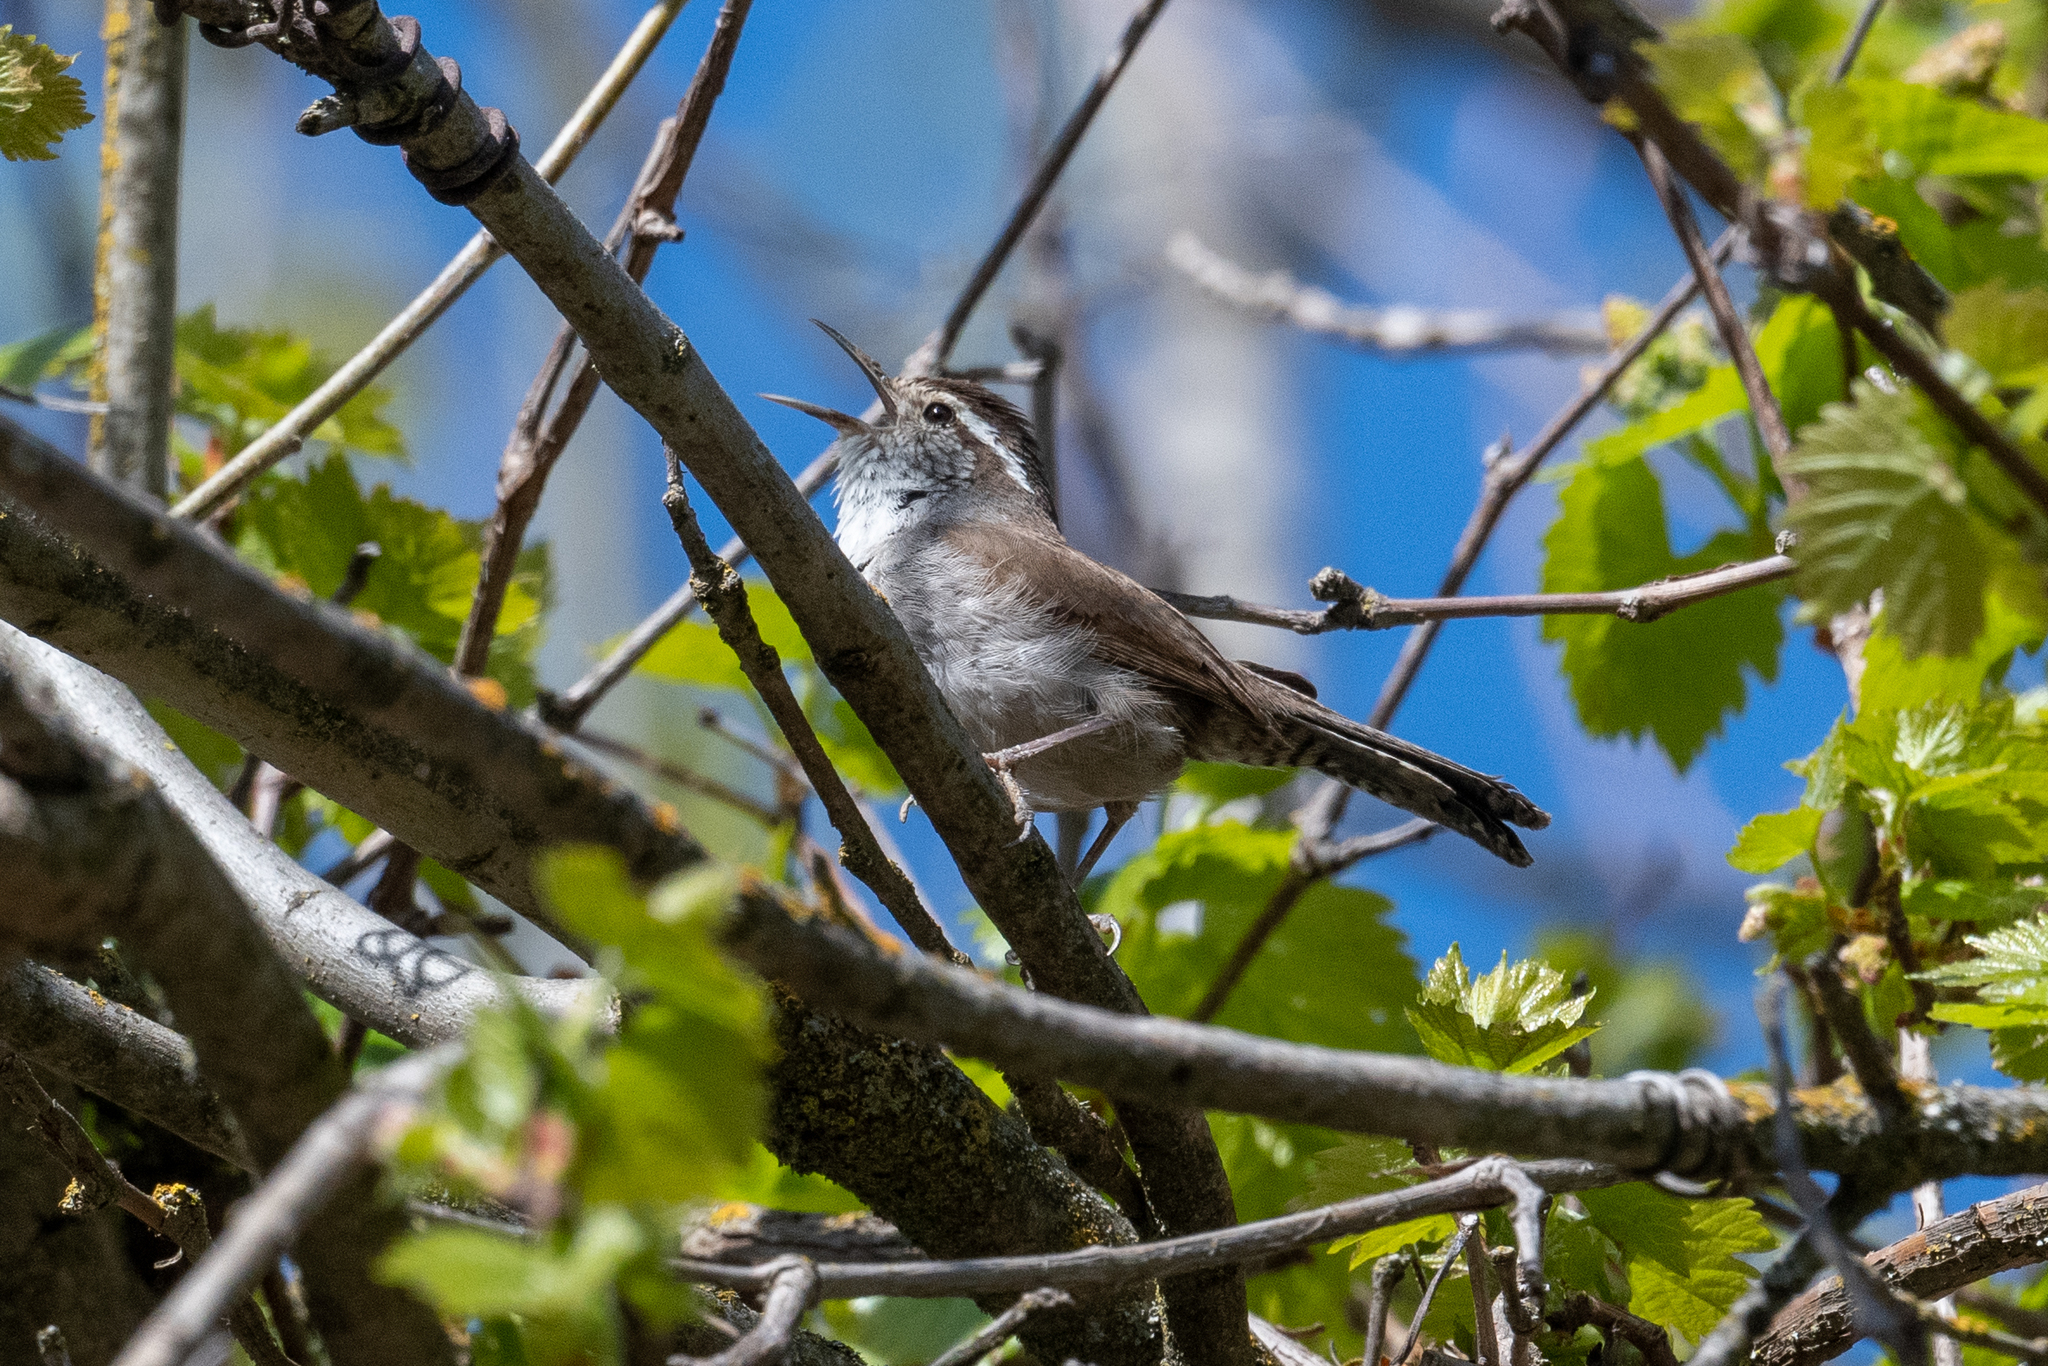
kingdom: Animalia
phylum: Chordata
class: Aves
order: Passeriformes
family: Troglodytidae
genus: Thryomanes
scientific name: Thryomanes bewickii
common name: Bewick's wren
